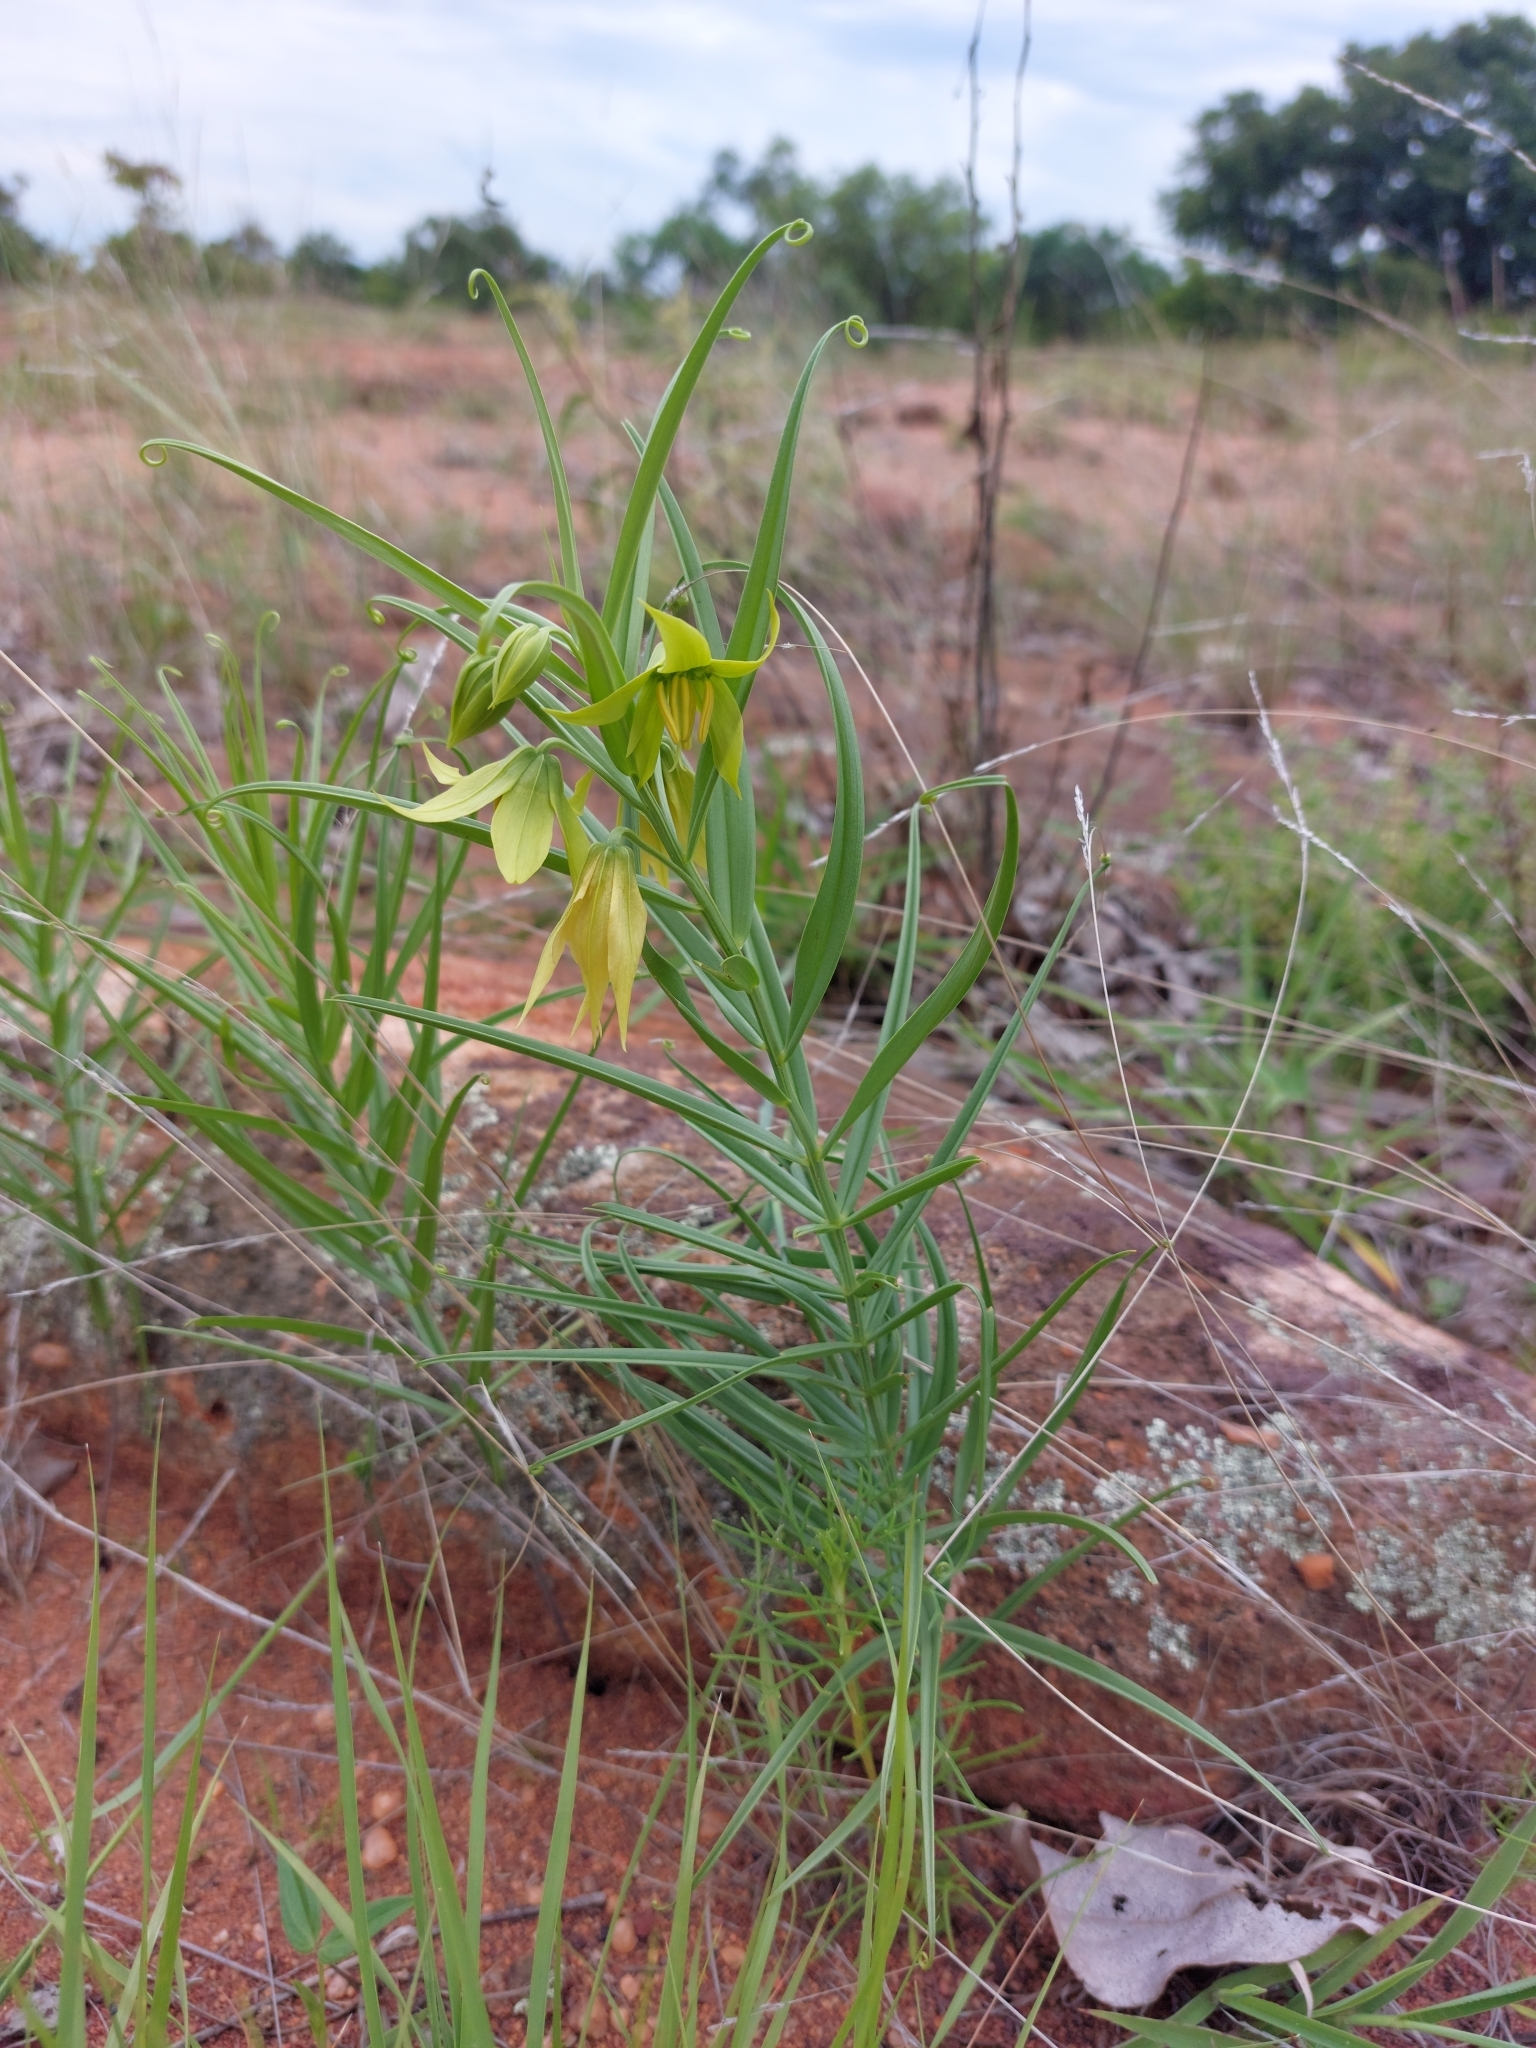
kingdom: Plantae
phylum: Tracheophyta
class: Liliopsida
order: Liliales
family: Colchicaceae
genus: Gloriosa
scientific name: Gloriosa rigidifolia
